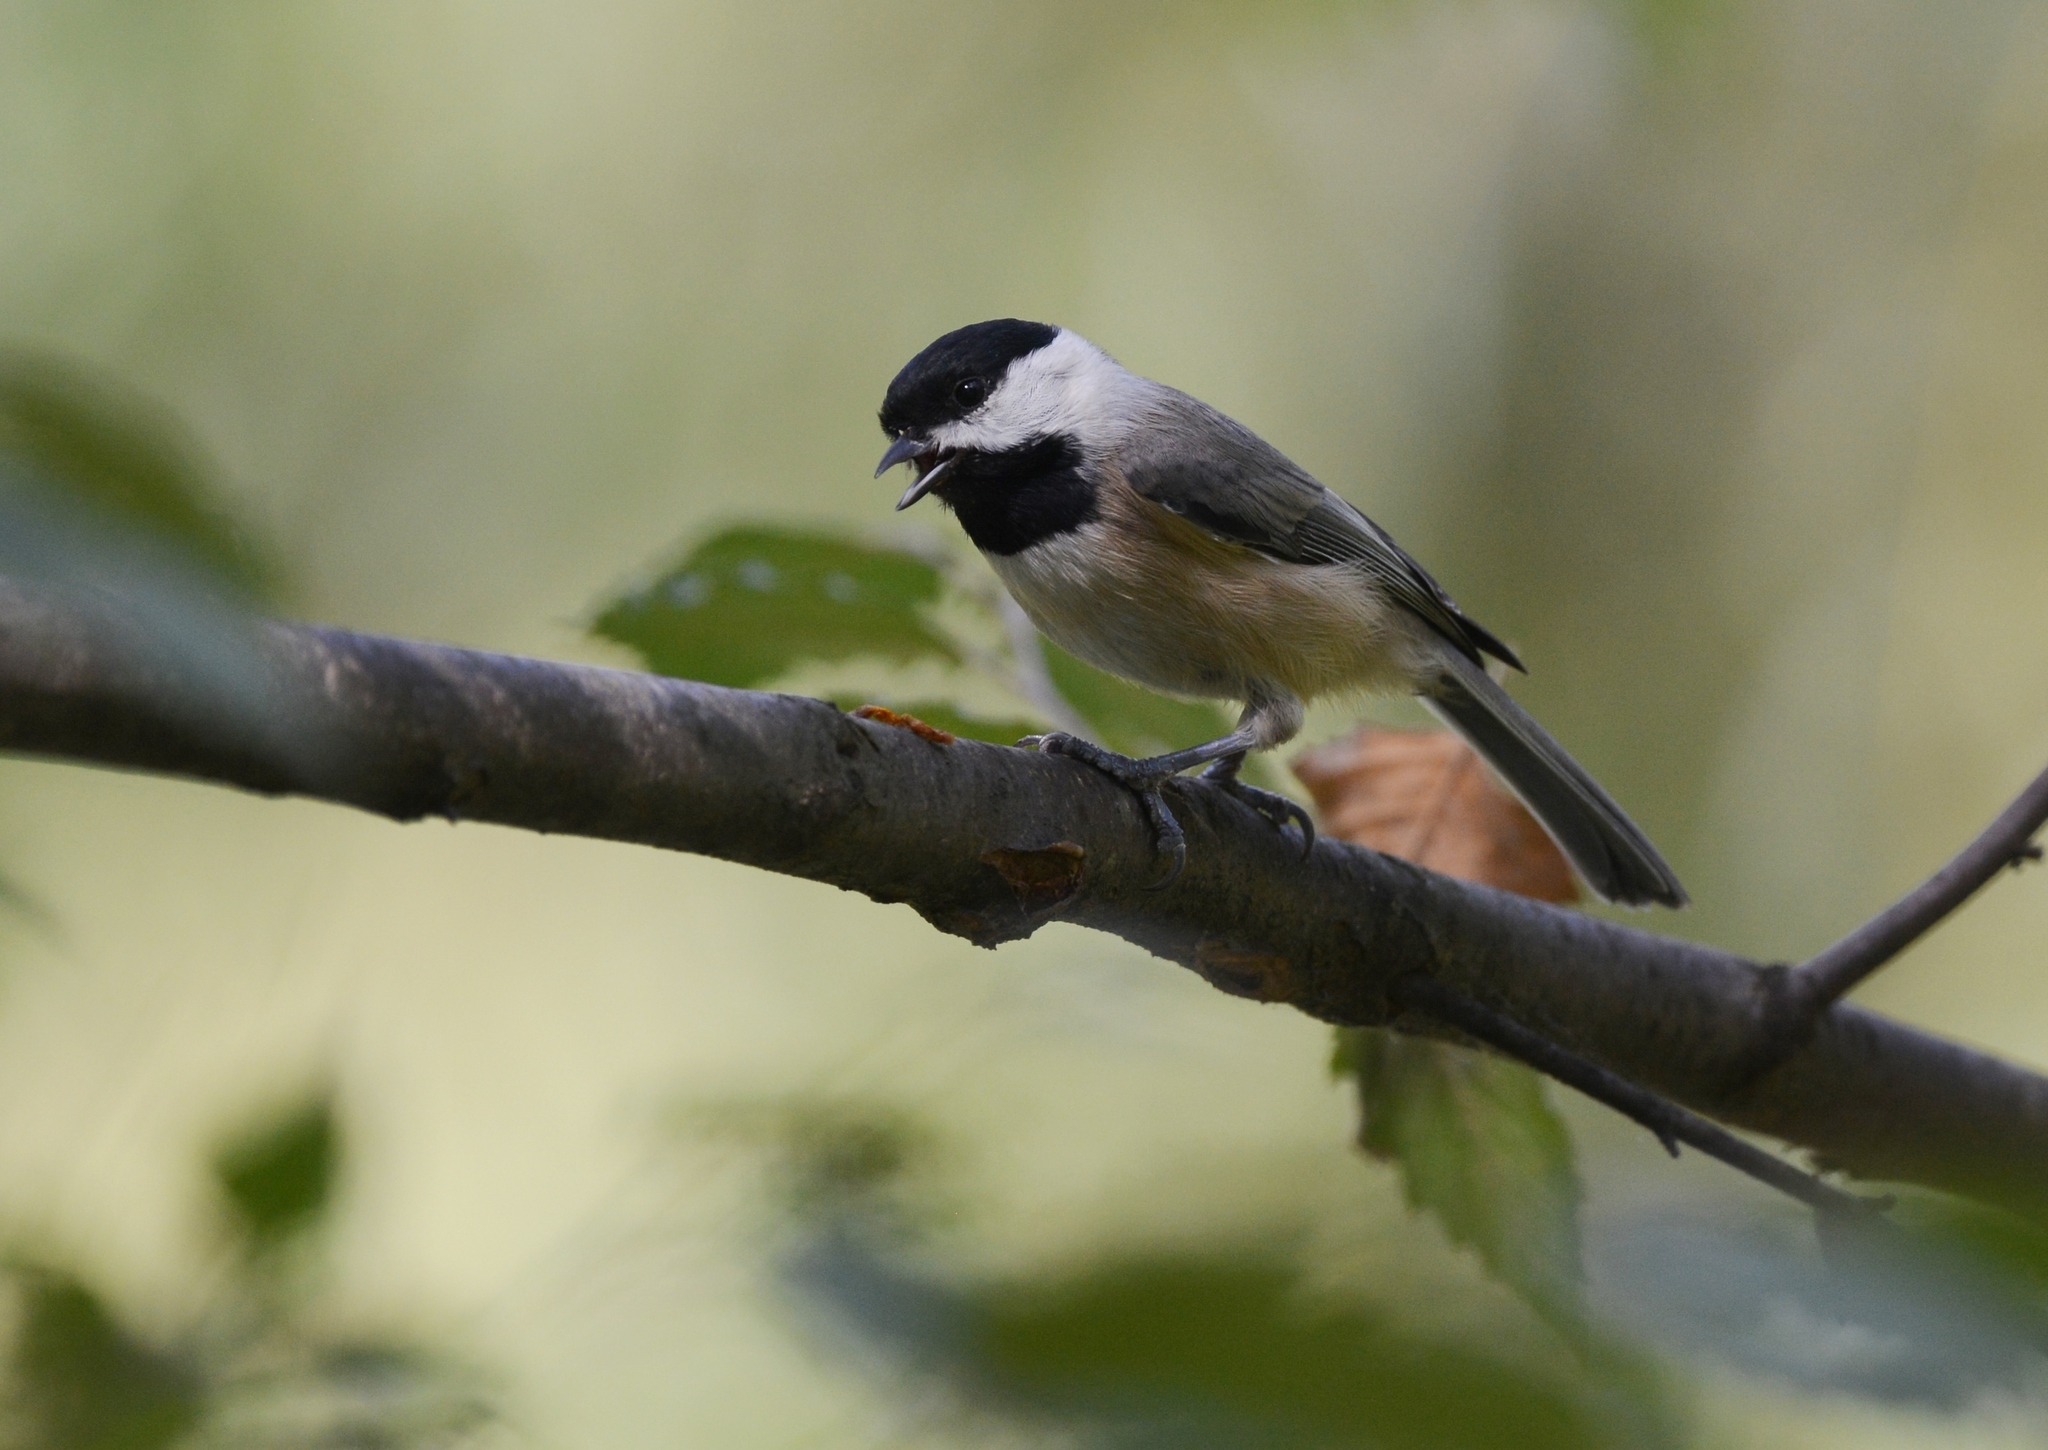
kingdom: Animalia
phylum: Chordata
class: Aves
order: Passeriformes
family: Paridae
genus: Poecile
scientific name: Poecile carolinensis
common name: Carolina chickadee
